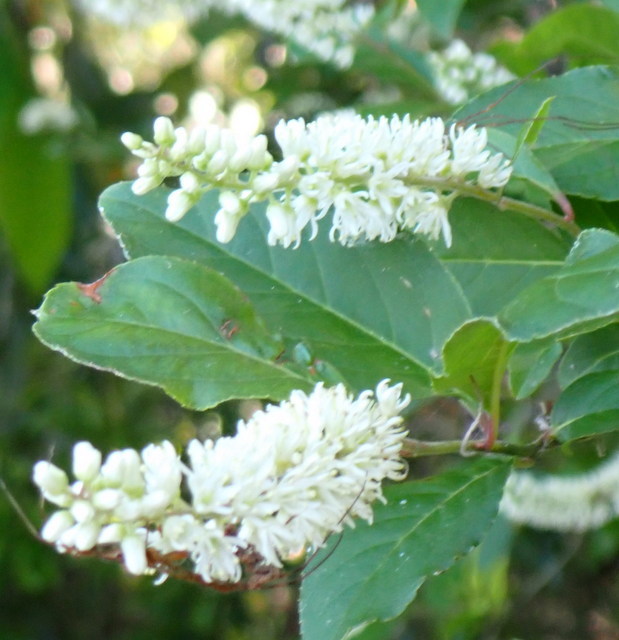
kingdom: Plantae
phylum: Tracheophyta
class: Magnoliopsida
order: Saxifragales
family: Iteaceae
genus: Itea
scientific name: Itea virginica
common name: Sweetspire
